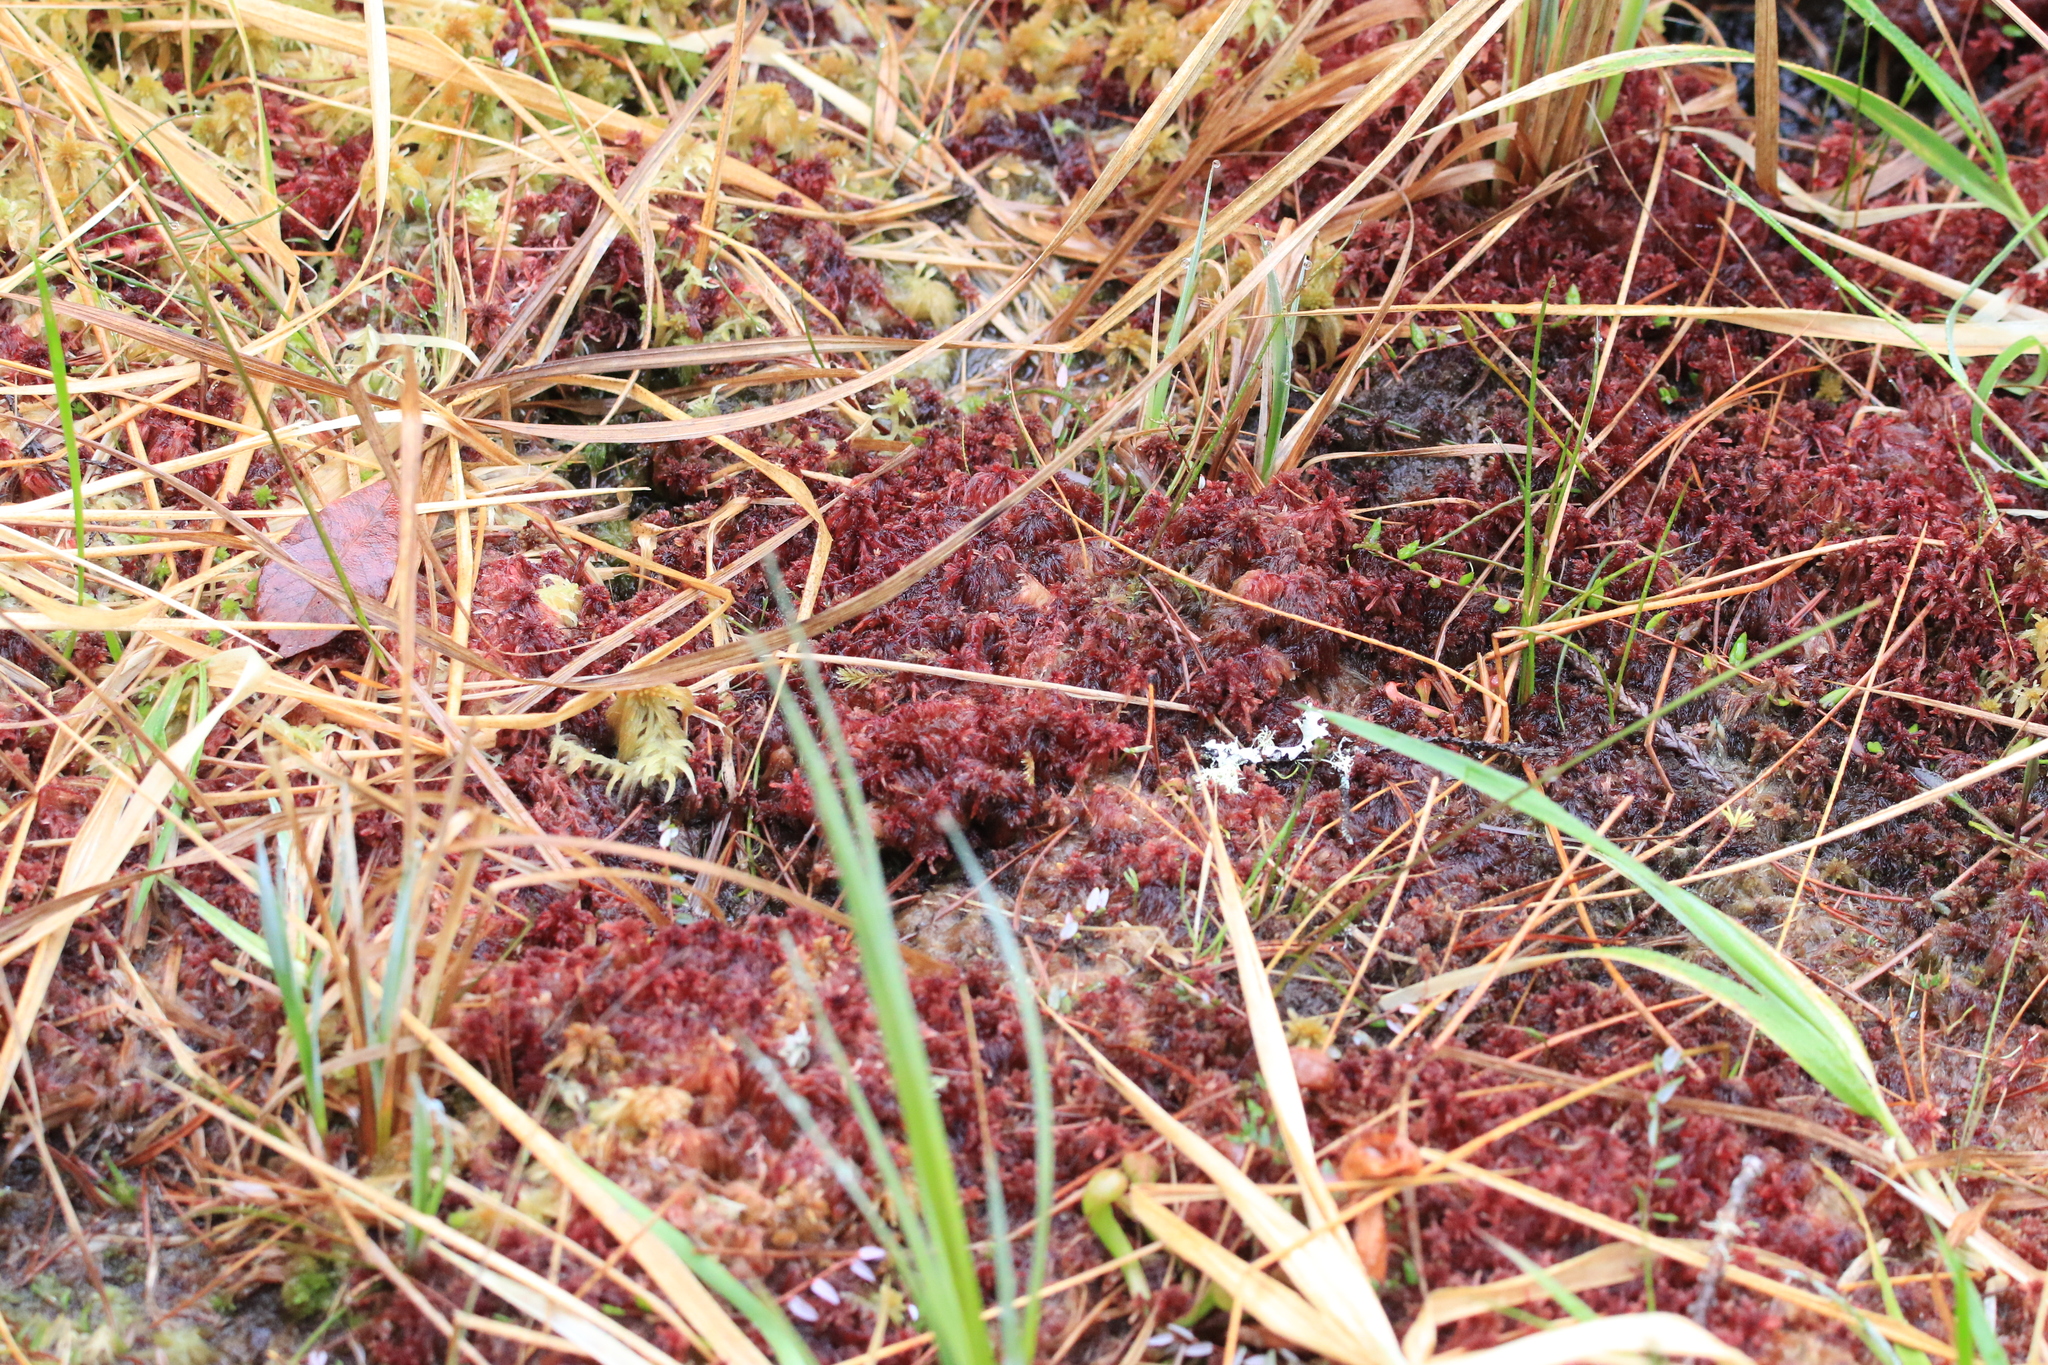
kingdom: Plantae
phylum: Bryophyta
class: Sphagnopsida
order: Sphagnales
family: Sphagnaceae
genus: Sphagnum
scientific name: Sphagnum rubellum
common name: Red peat moss
